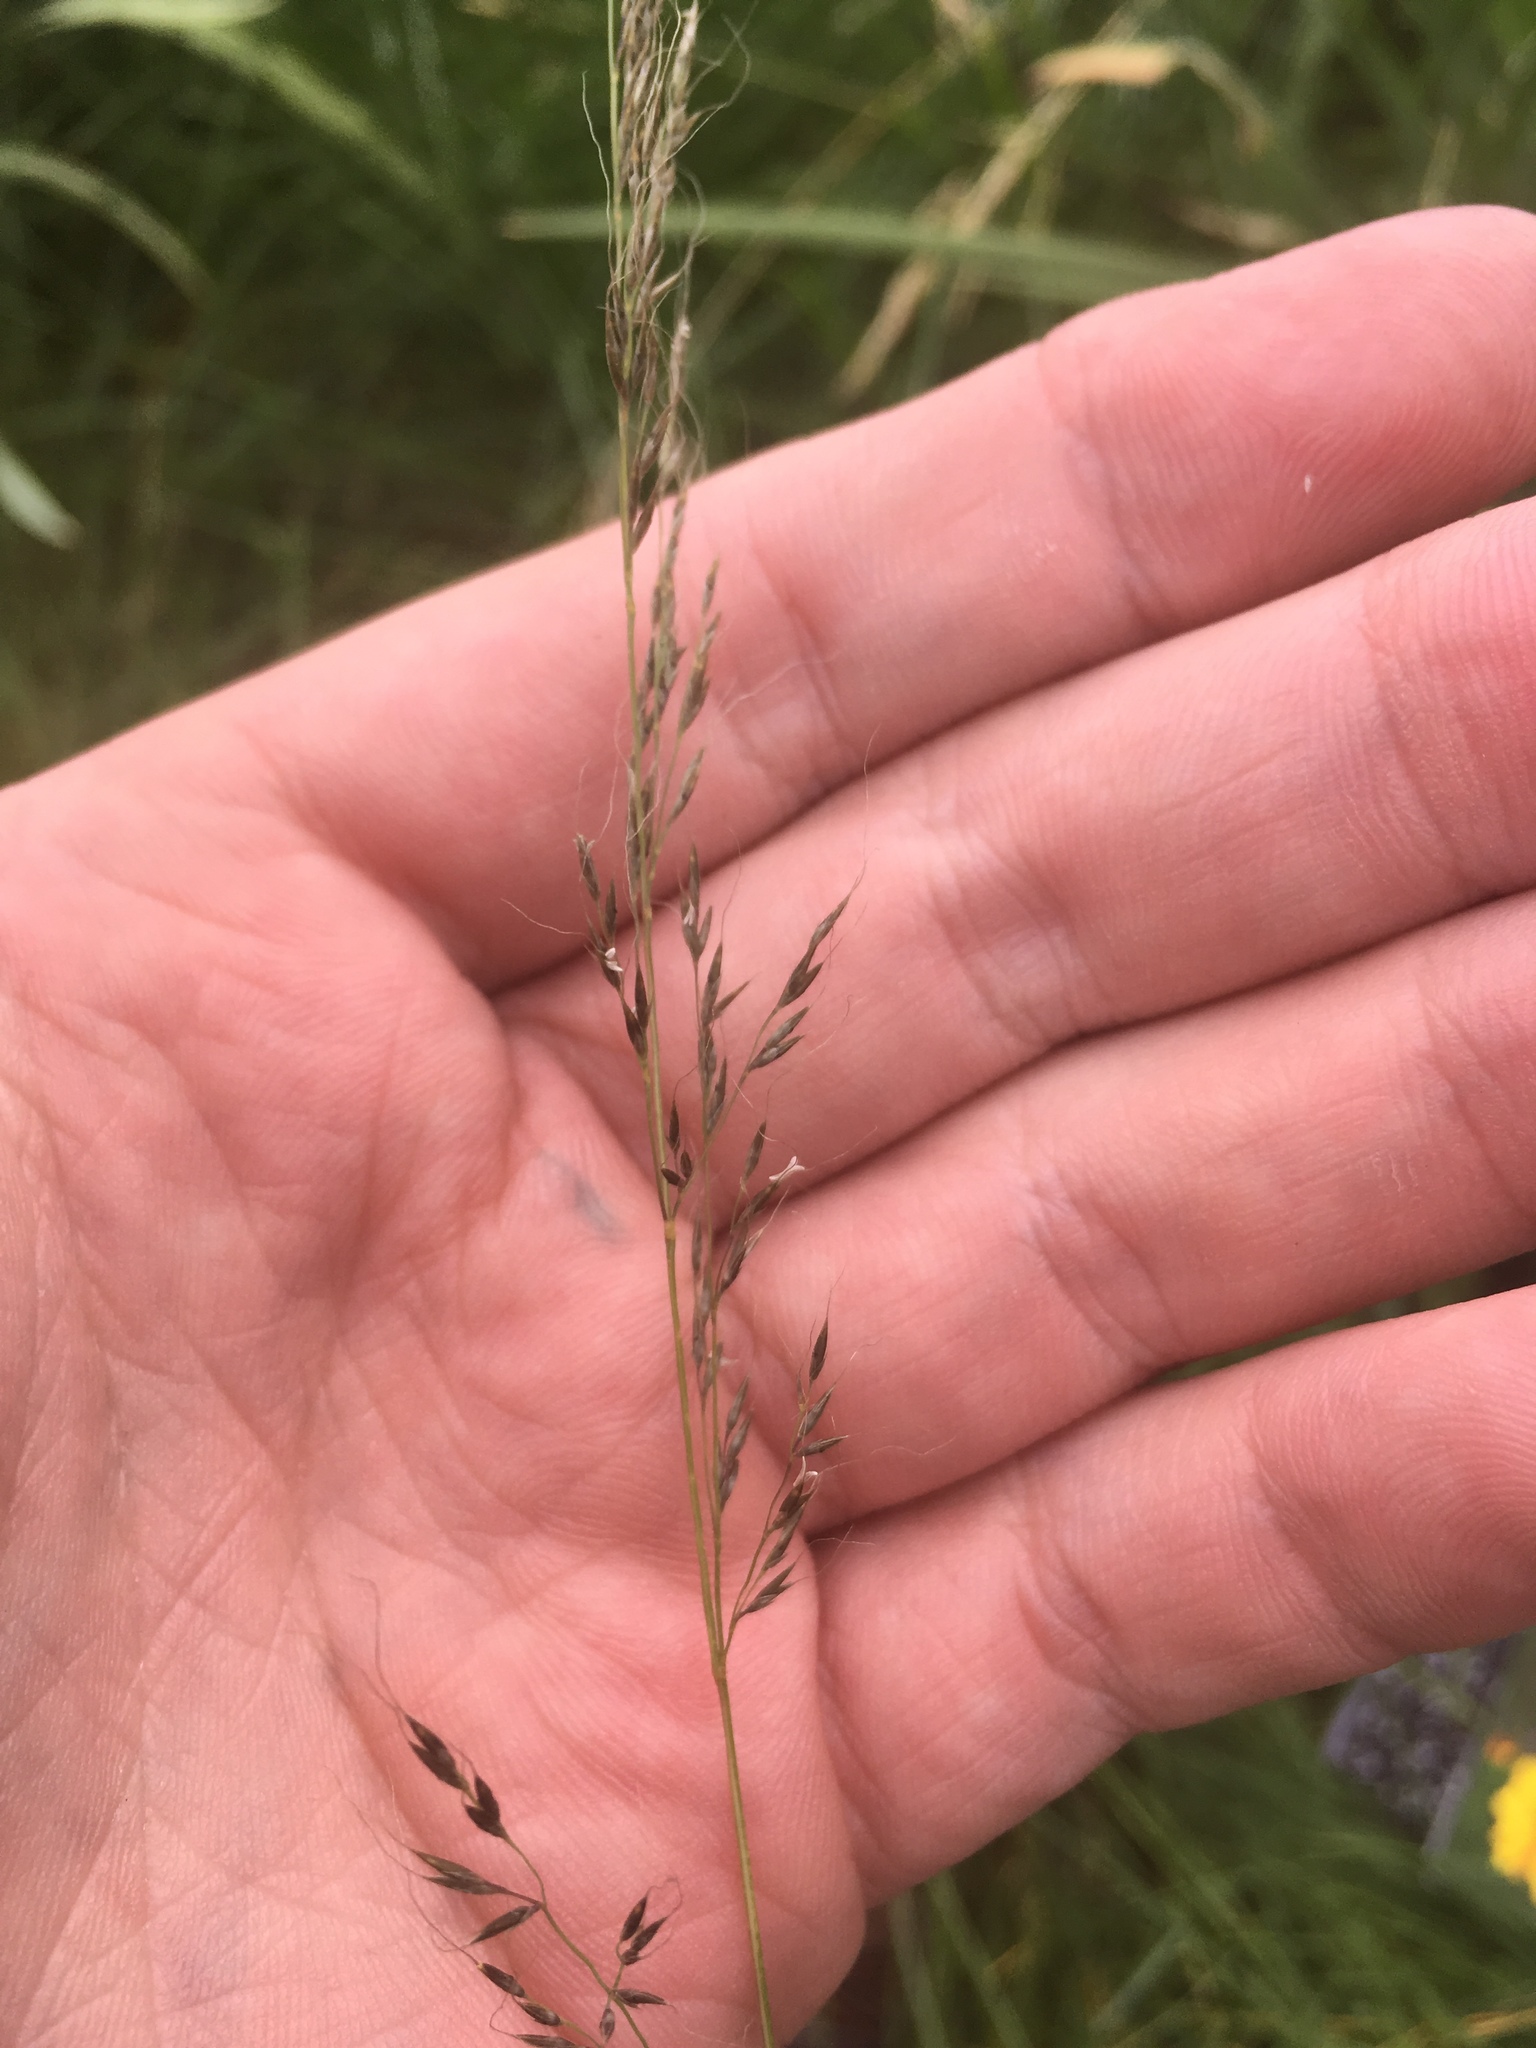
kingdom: Plantae
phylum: Tracheophyta
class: Liliopsida
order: Poales
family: Poaceae
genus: Muhlenbergia
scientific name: Muhlenbergia montana
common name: Mountain muhly
